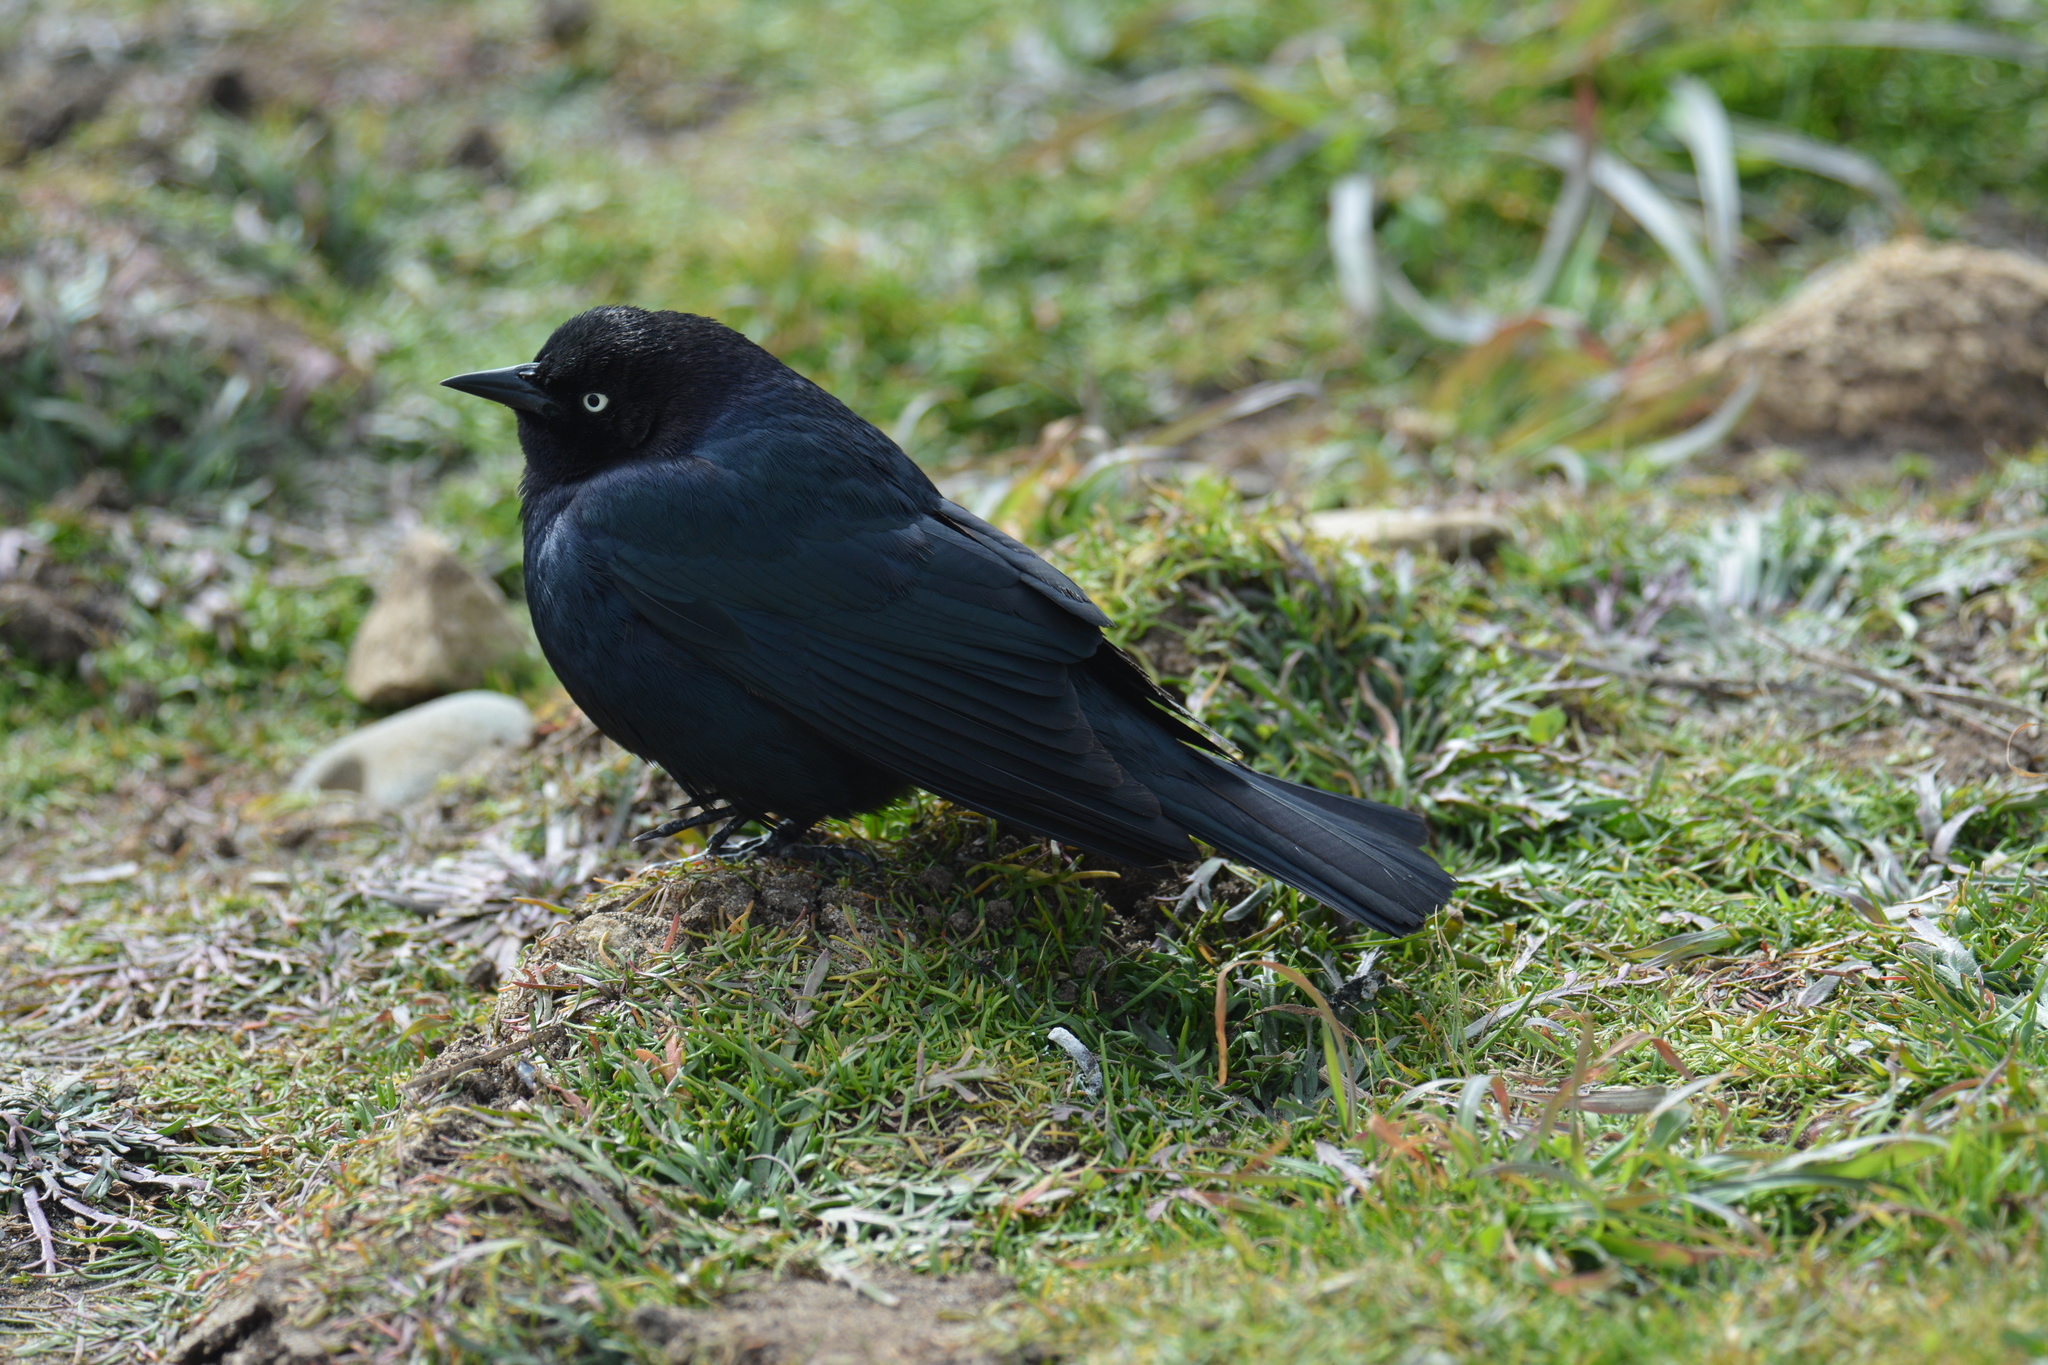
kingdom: Animalia
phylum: Chordata
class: Aves
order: Passeriformes
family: Icteridae
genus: Euphagus
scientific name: Euphagus cyanocephalus
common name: Brewer's blackbird
